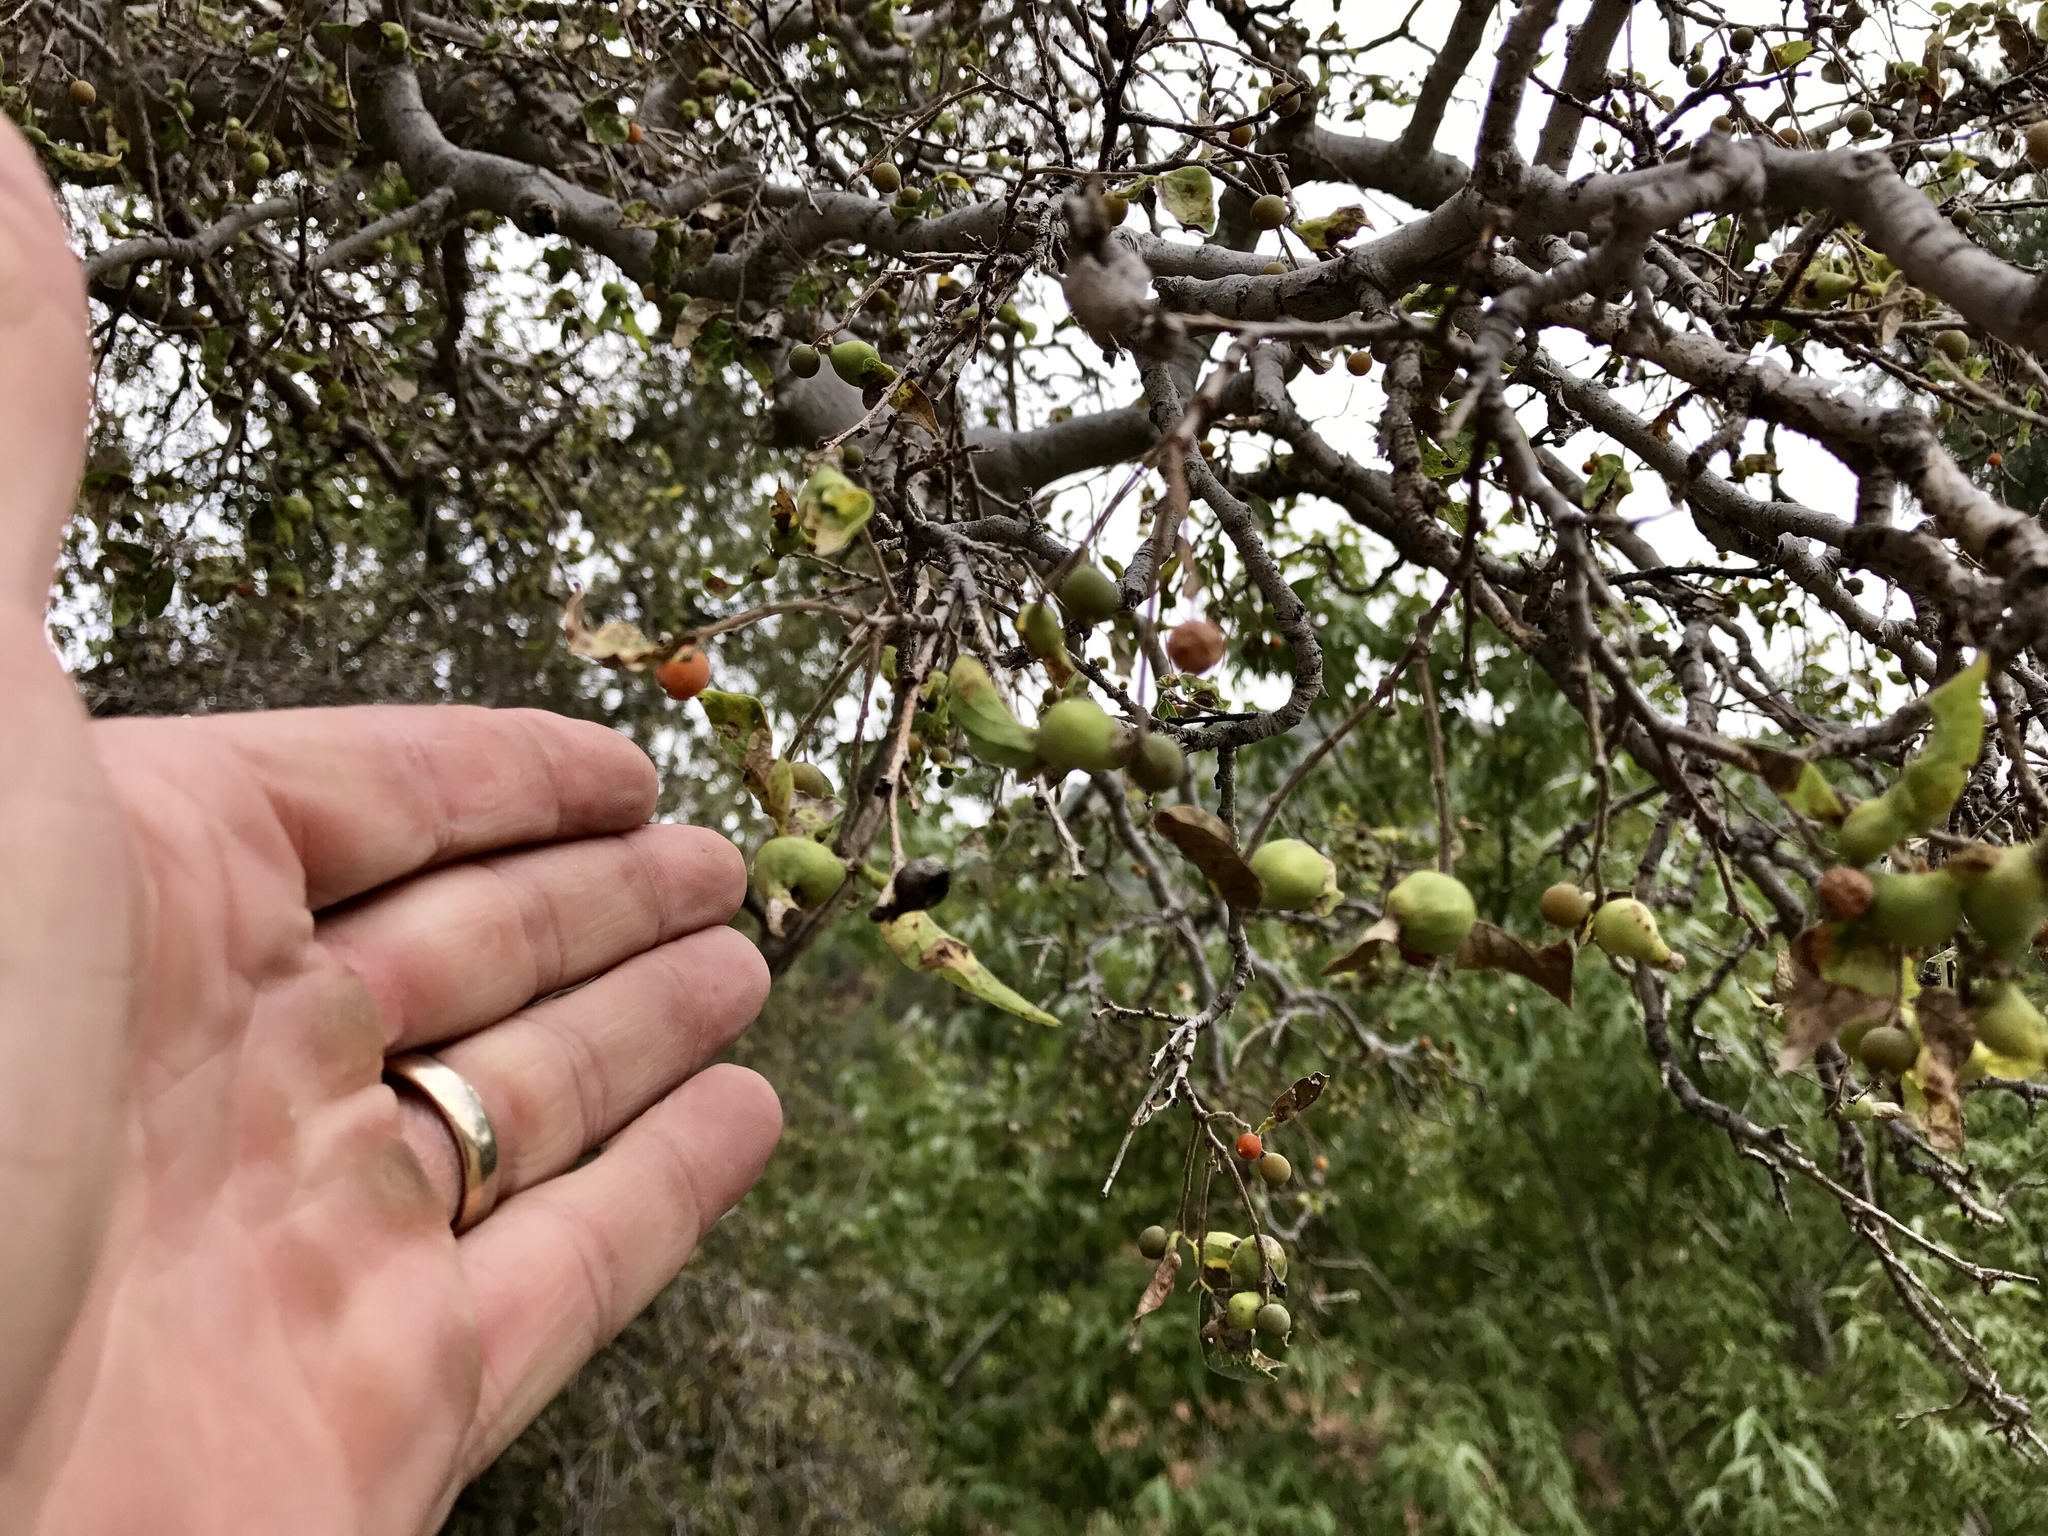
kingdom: Plantae
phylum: Tracheophyta
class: Magnoliopsida
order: Rosales
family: Cannabaceae
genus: Celtis
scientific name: Celtis reticulata
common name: Netleaf hackberry
